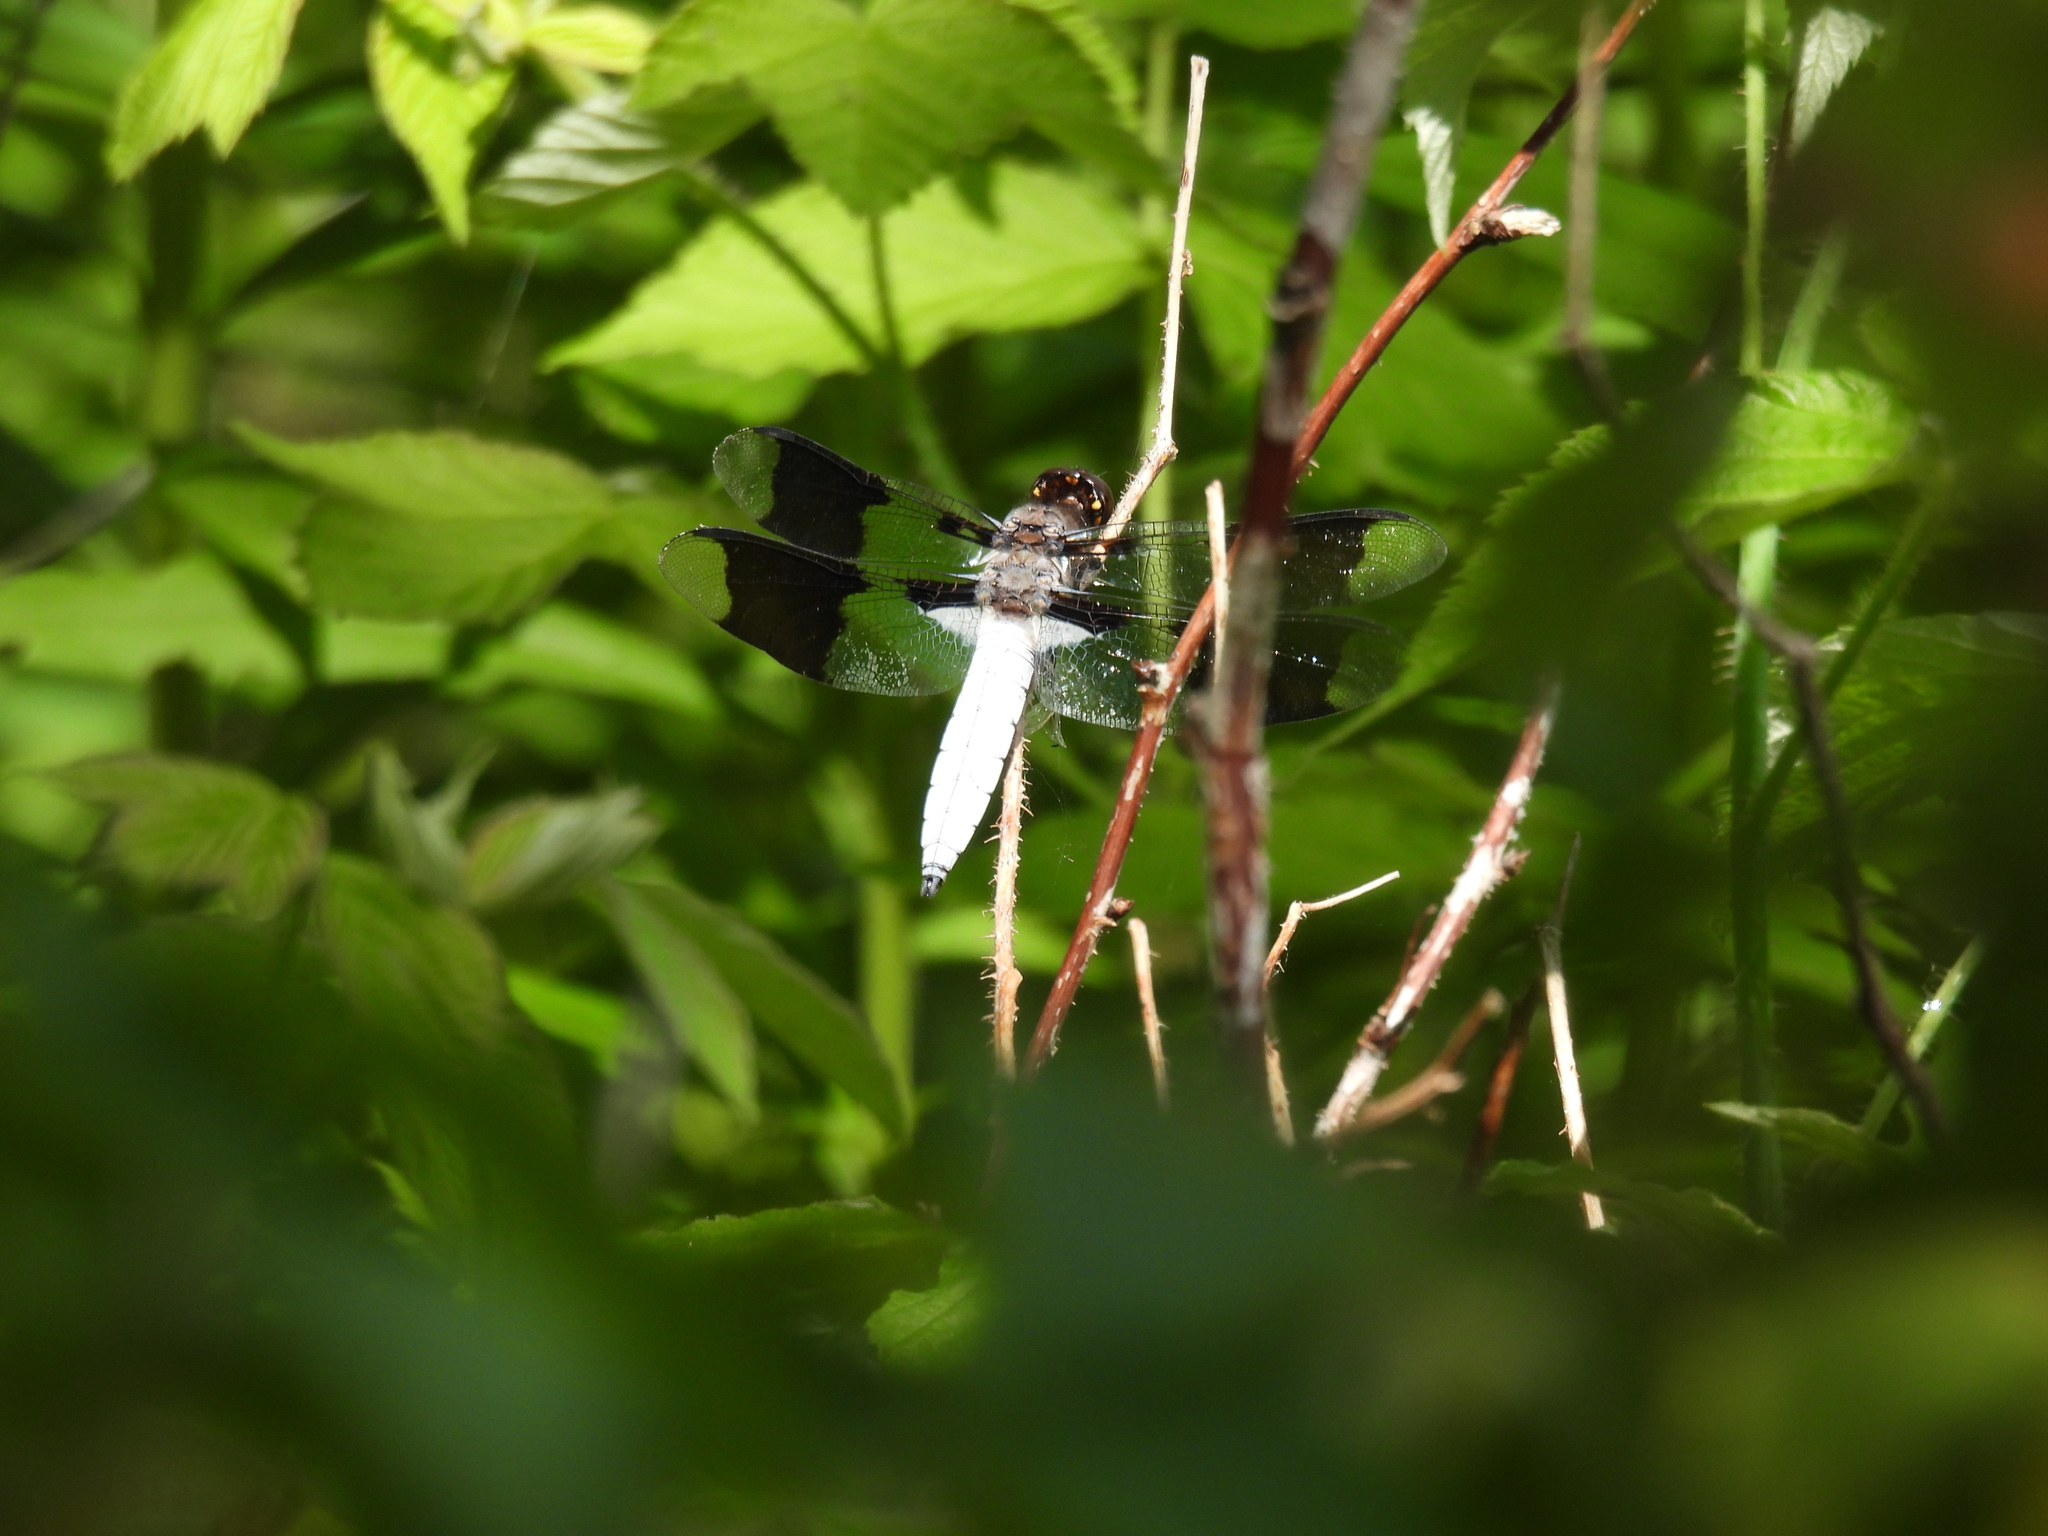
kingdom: Animalia
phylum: Arthropoda
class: Insecta
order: Odonata
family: Libellulidae
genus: Plathemis
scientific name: Plathemis lydia
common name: Common whitetail
